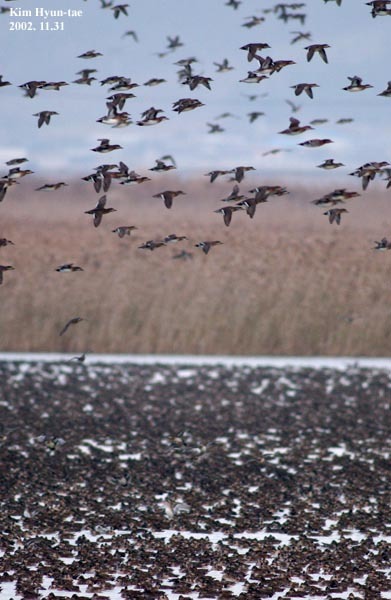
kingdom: Animalia
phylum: Chordata
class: Aves
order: Anseriformes
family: Anatidae
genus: Sibirionetta
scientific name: Sibirionetta formosa
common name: Baikal teal
